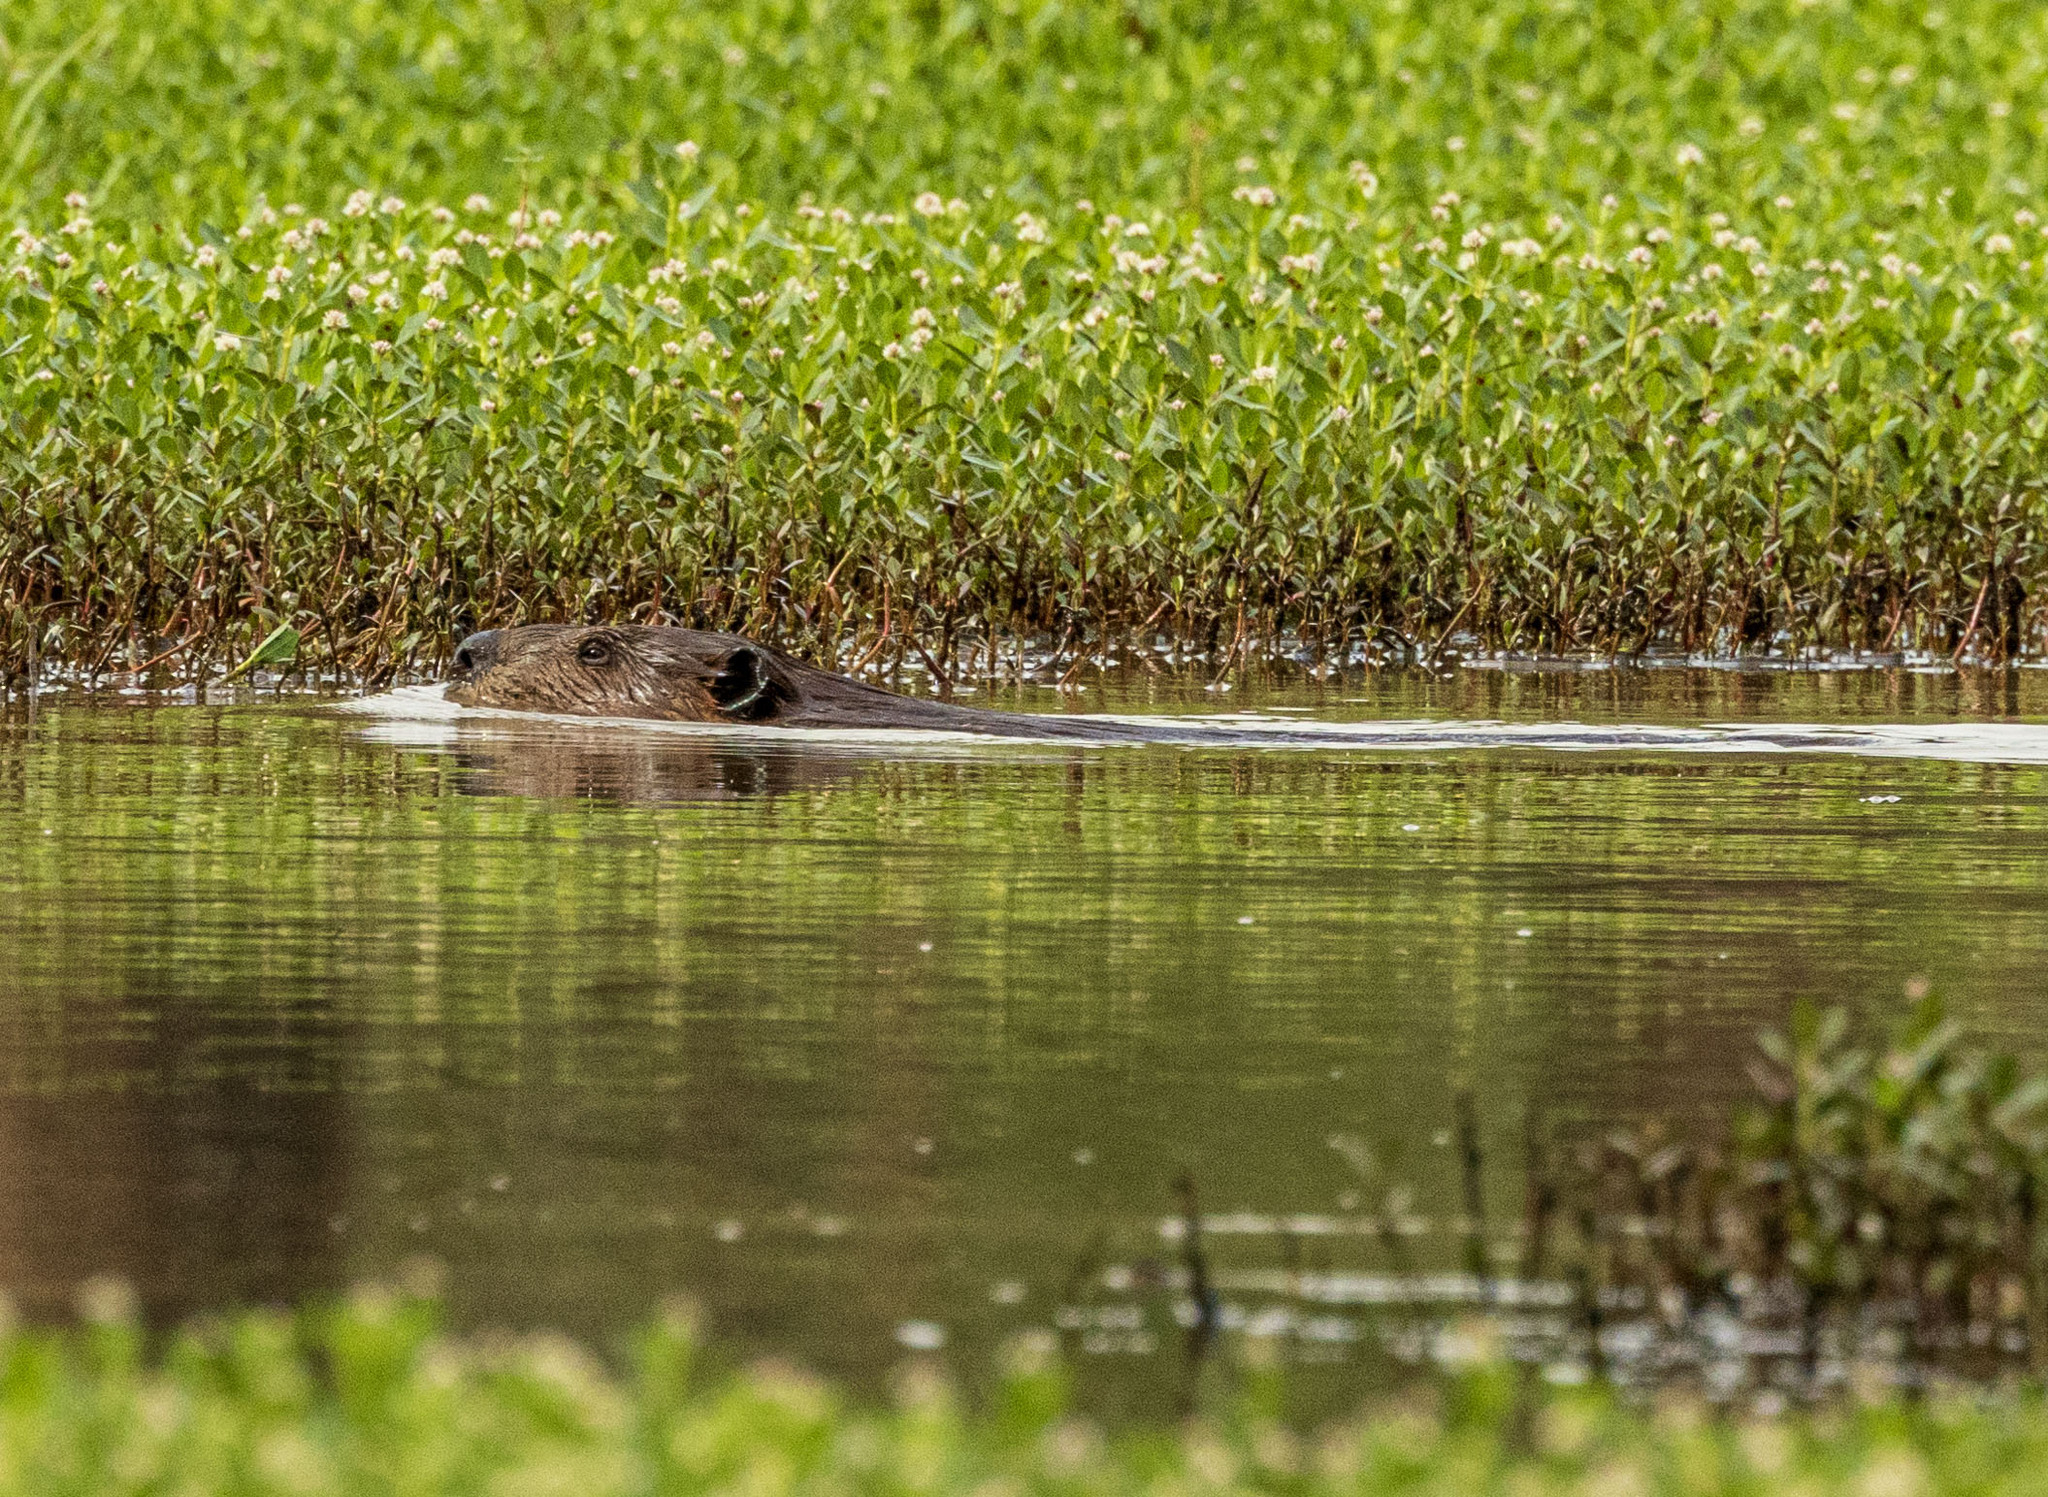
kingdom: Animalia
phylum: Chordata
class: Mammalia
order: Rodentia
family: Castoridae
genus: Castor
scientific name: Castor canadensis
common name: American beaver
